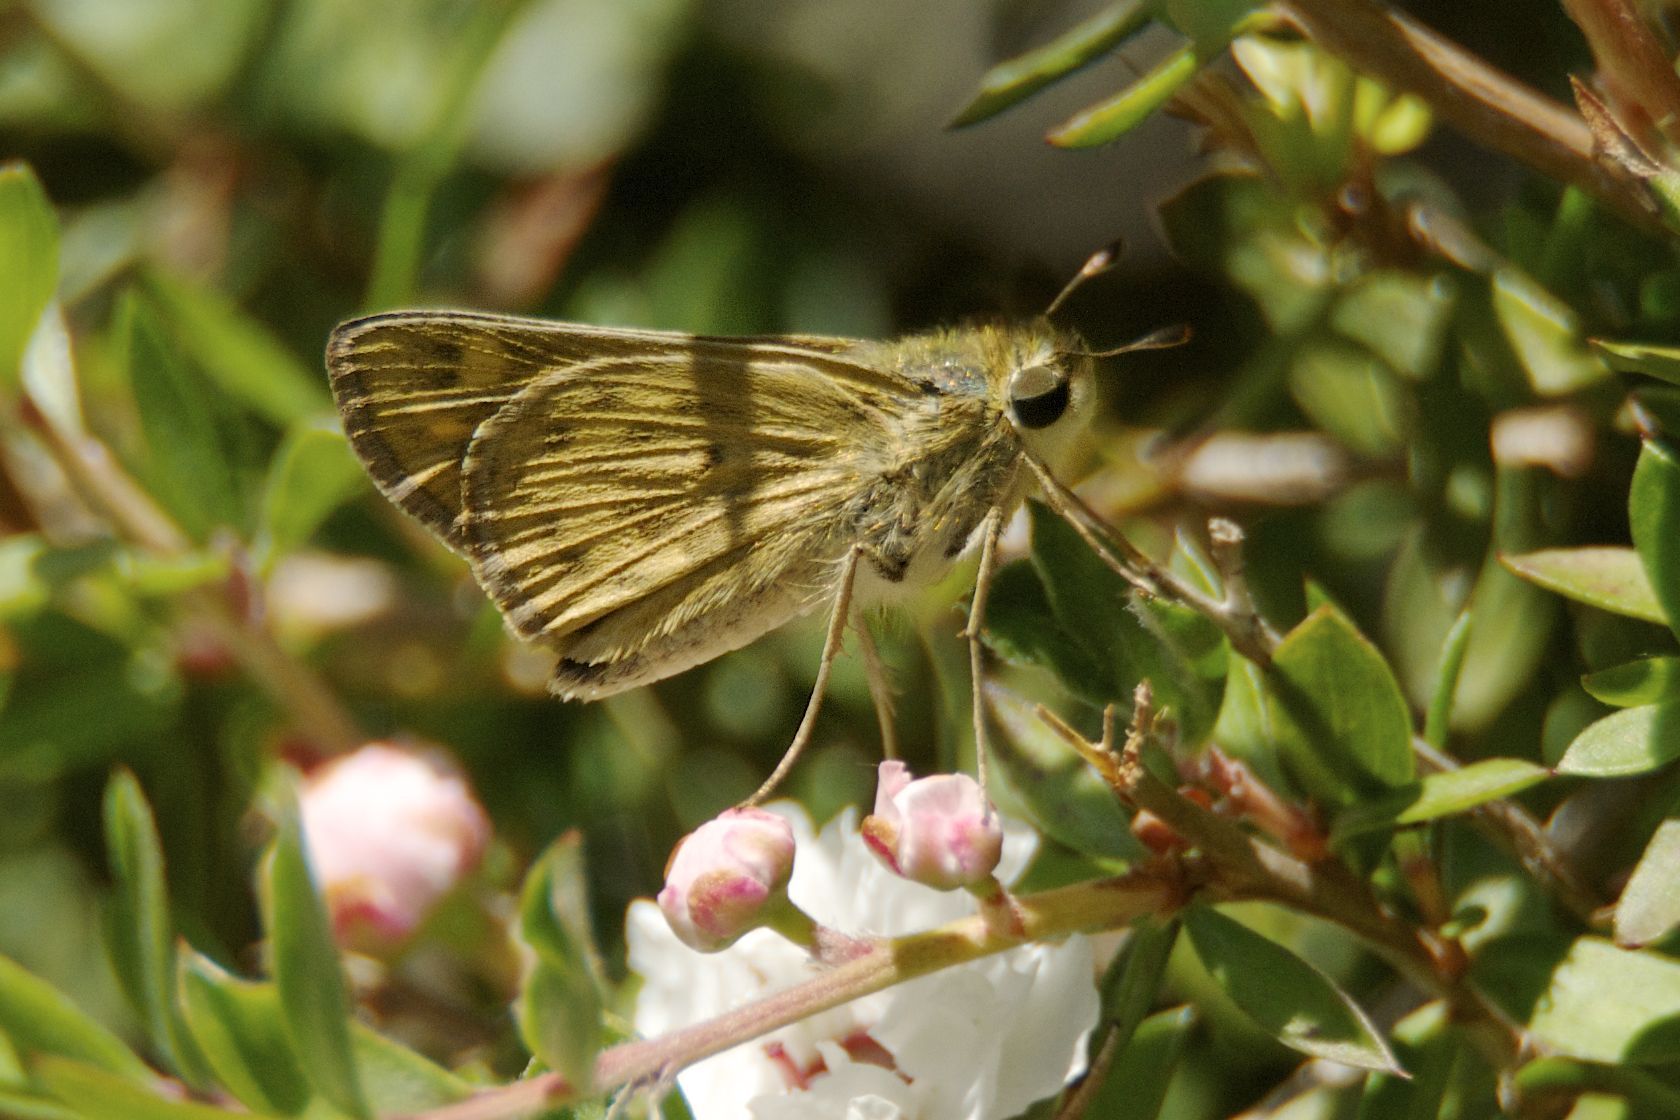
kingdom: Animalia
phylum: Arthropoda
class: Insecta
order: Lepidoptera
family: Hesperiidae
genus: Hylephila
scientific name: Hylephila phyleus
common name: Fiery skipper
